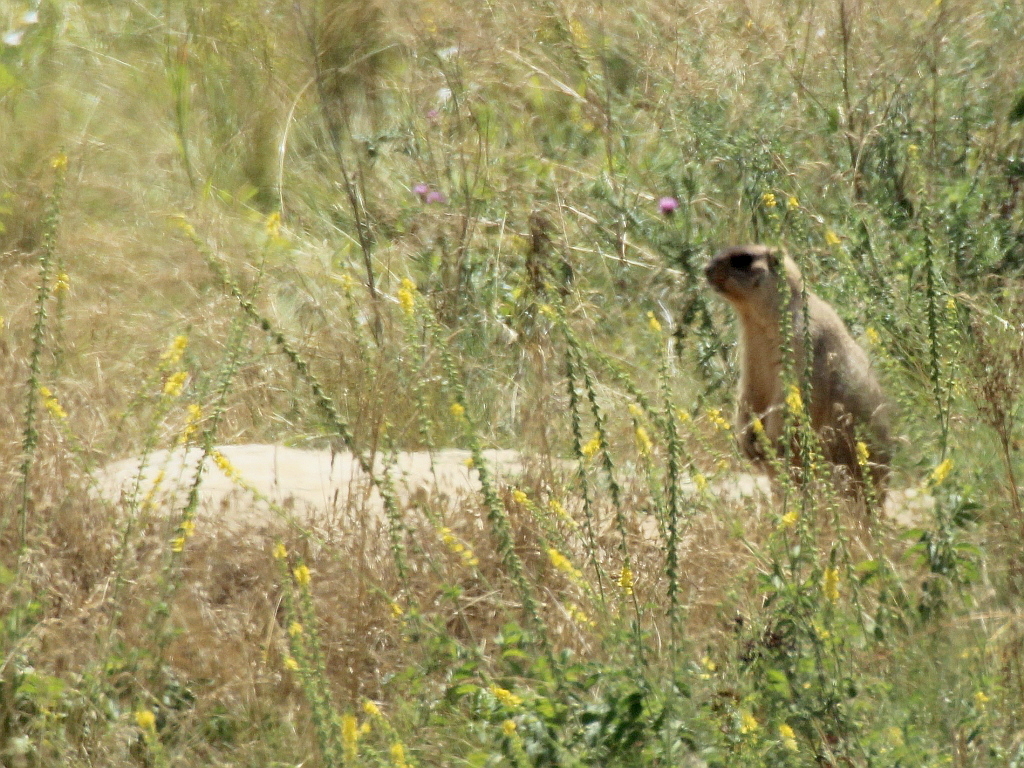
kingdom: Animalia
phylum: Chordata
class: Mammalia
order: Rodentia
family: Sciuridae
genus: Marmota
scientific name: Marmota bobak
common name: Bobak marmot
